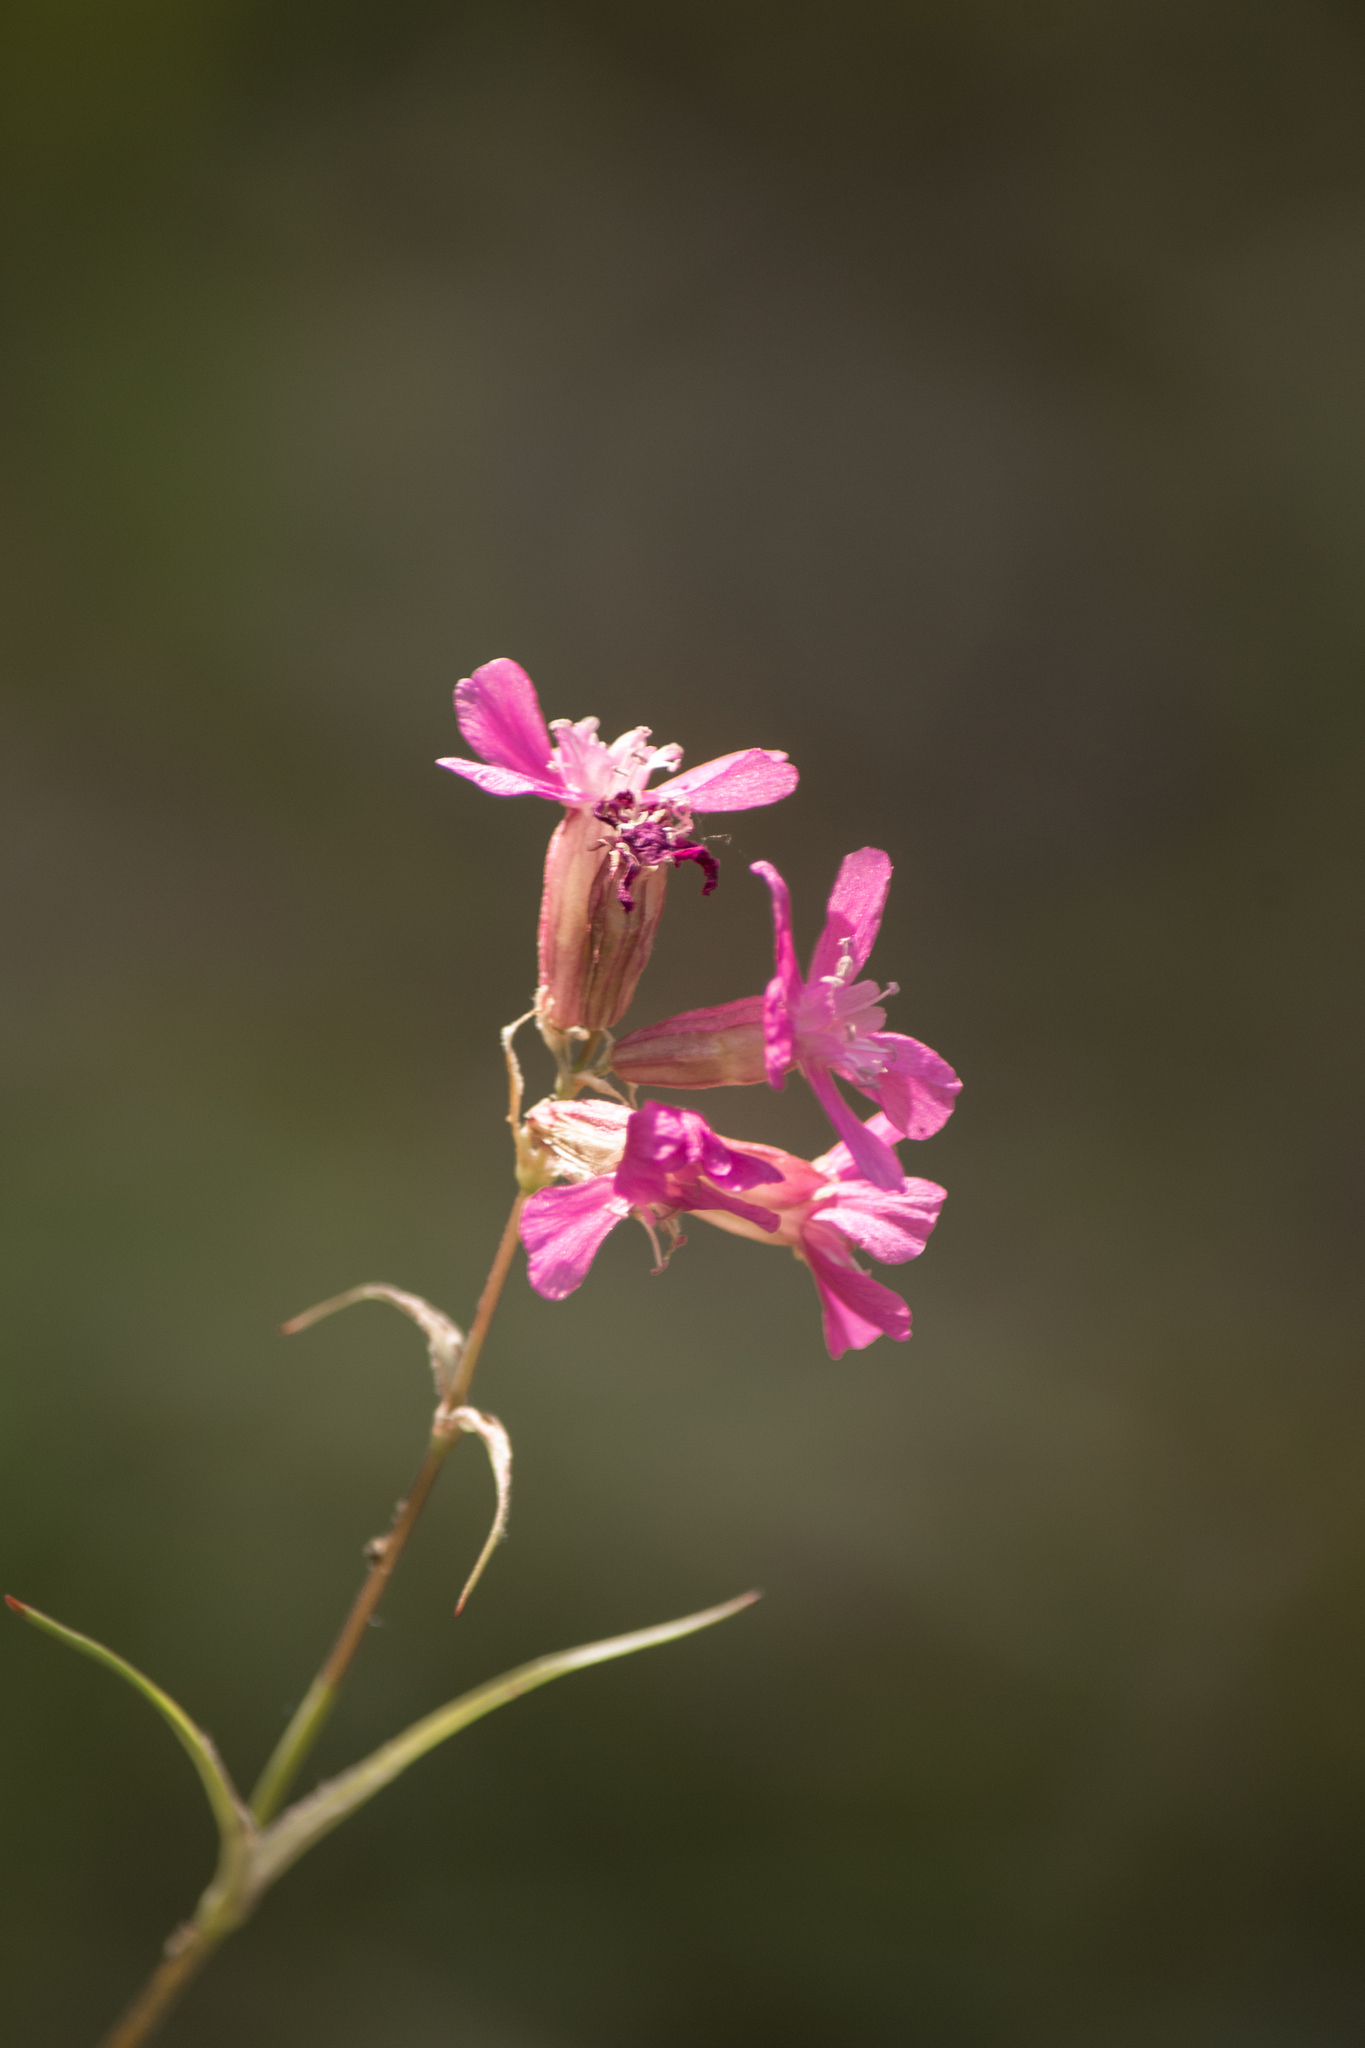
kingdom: Plantae
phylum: Tracheophyta
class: Magnoliopsida
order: Caryophyllales
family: Caryophyllaceae
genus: Viscaria
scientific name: Viscaria vulgaris
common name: Clammy campion
